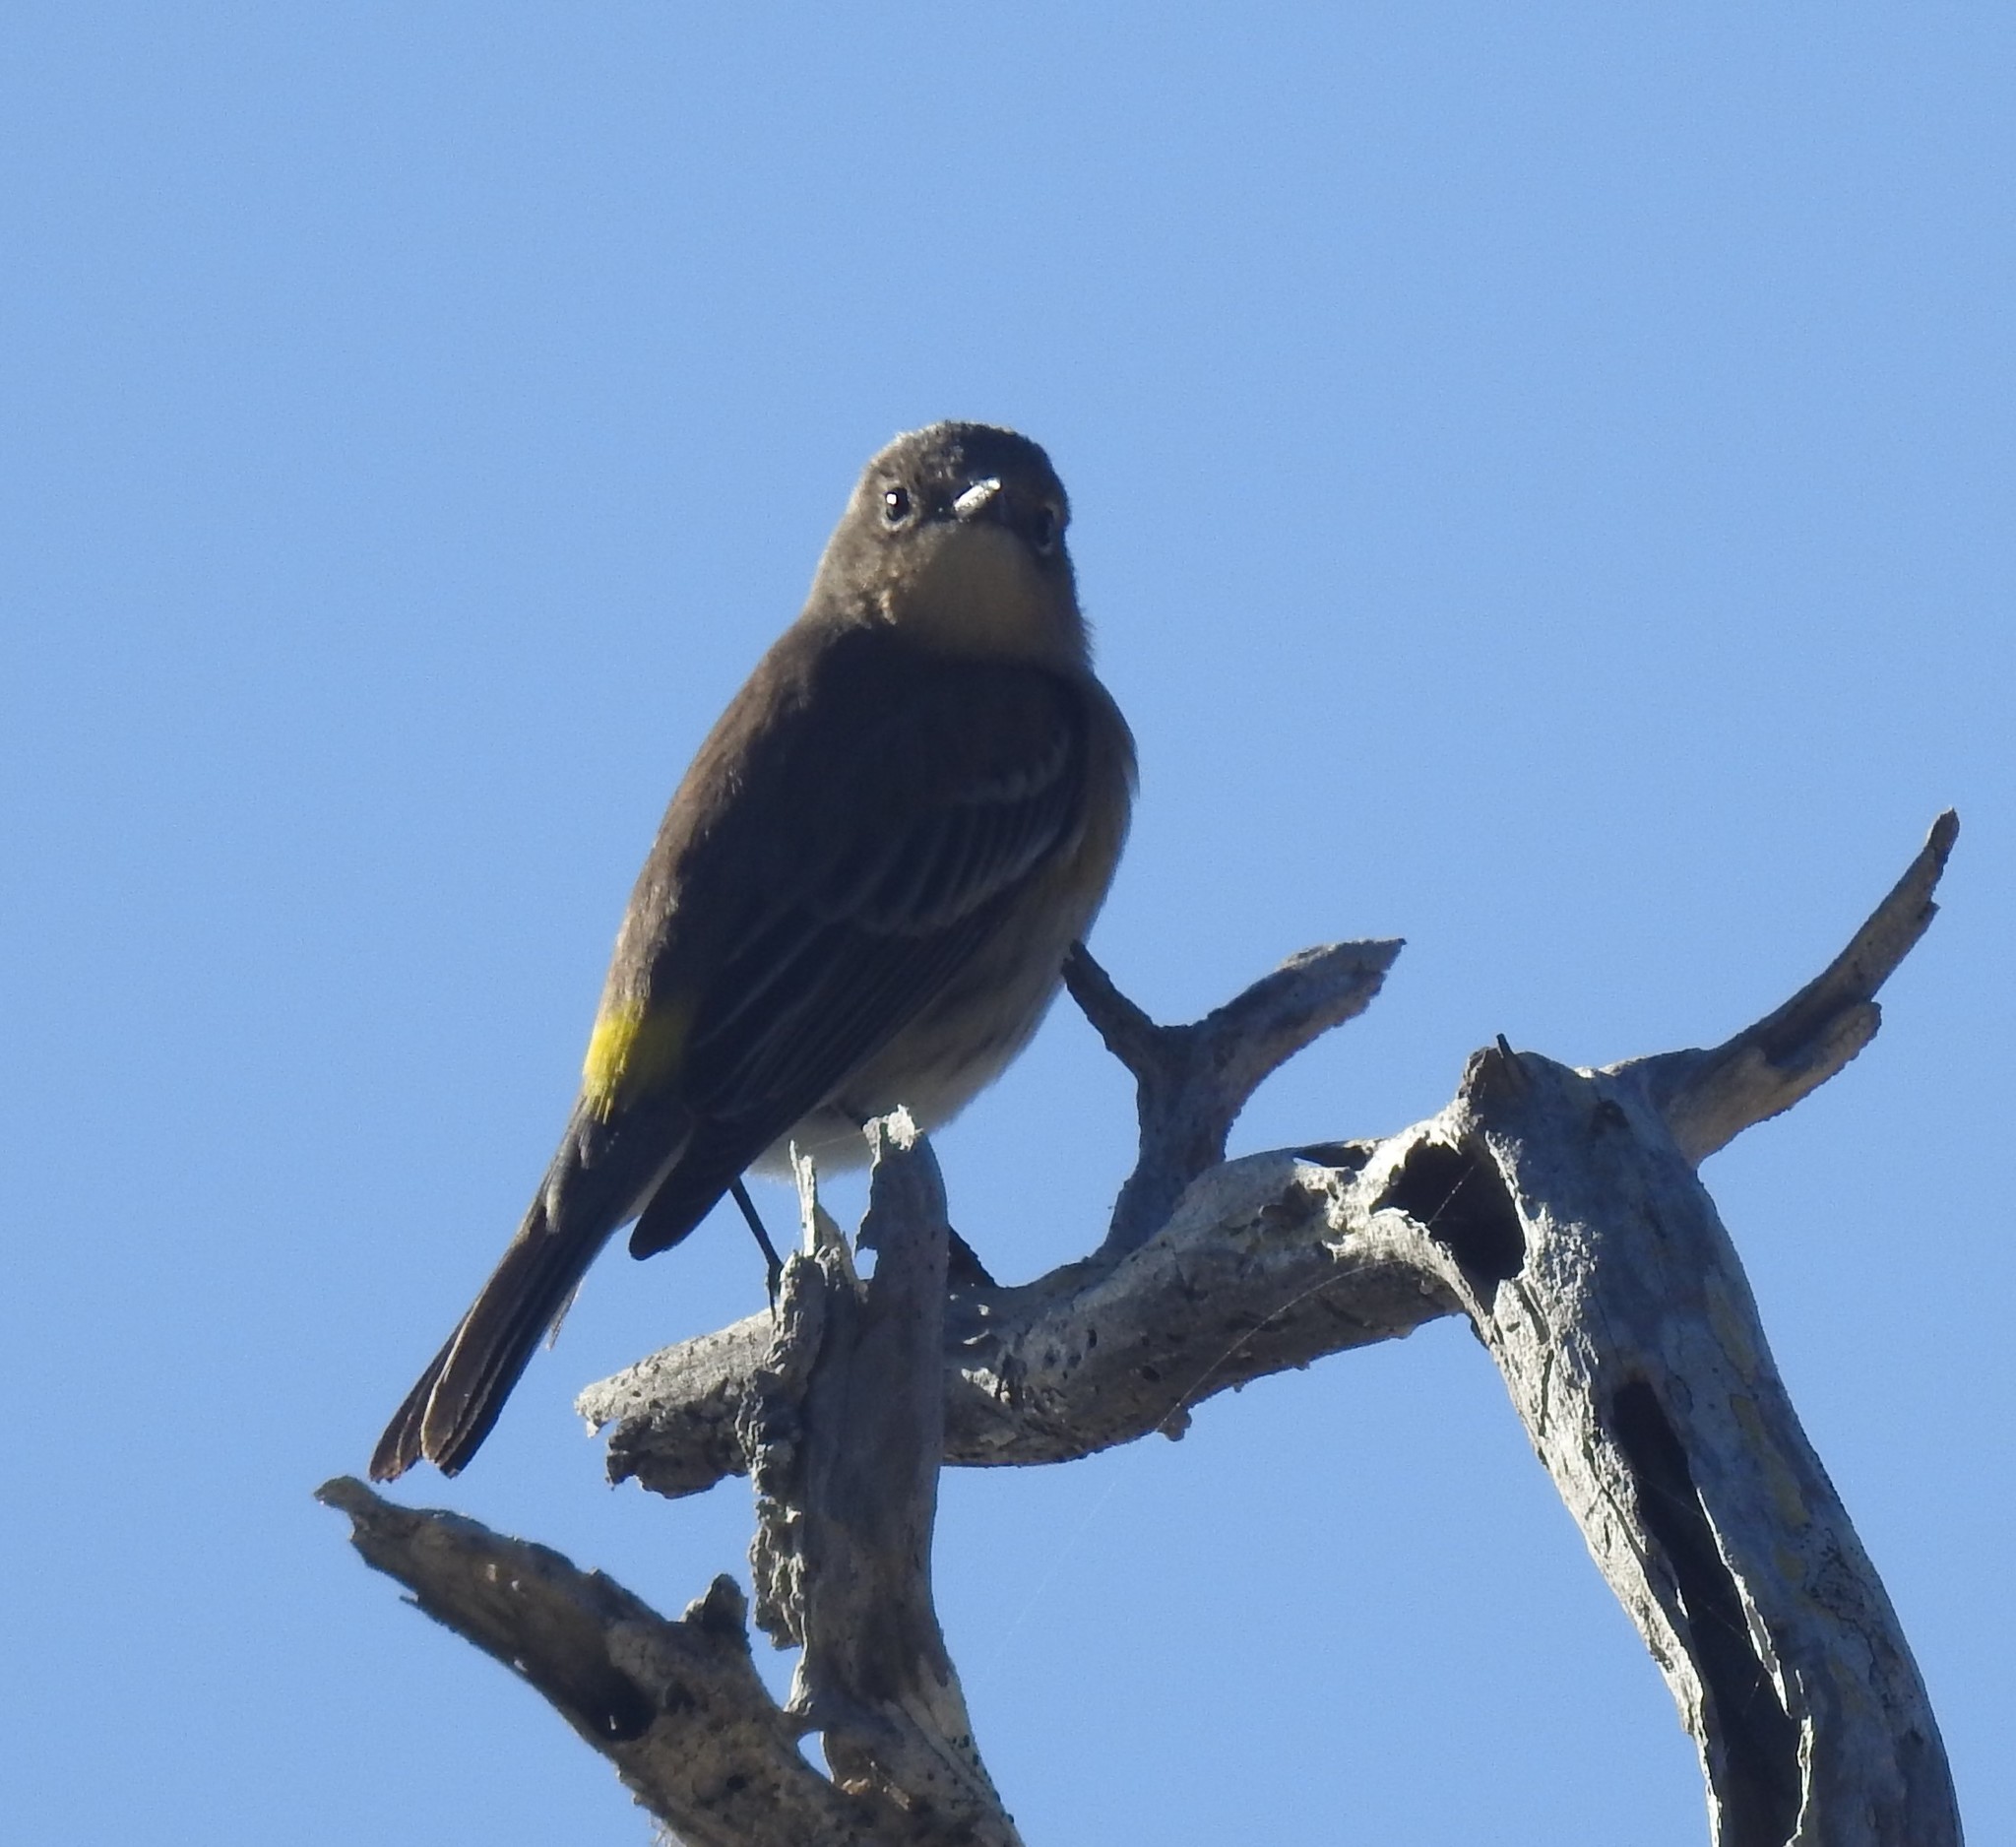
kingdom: Animalia
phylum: Chordata
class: Aves
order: Passeriformes
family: Parulidae
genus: Setophaga
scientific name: Setophaga coronata
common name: Myrtle warbler
